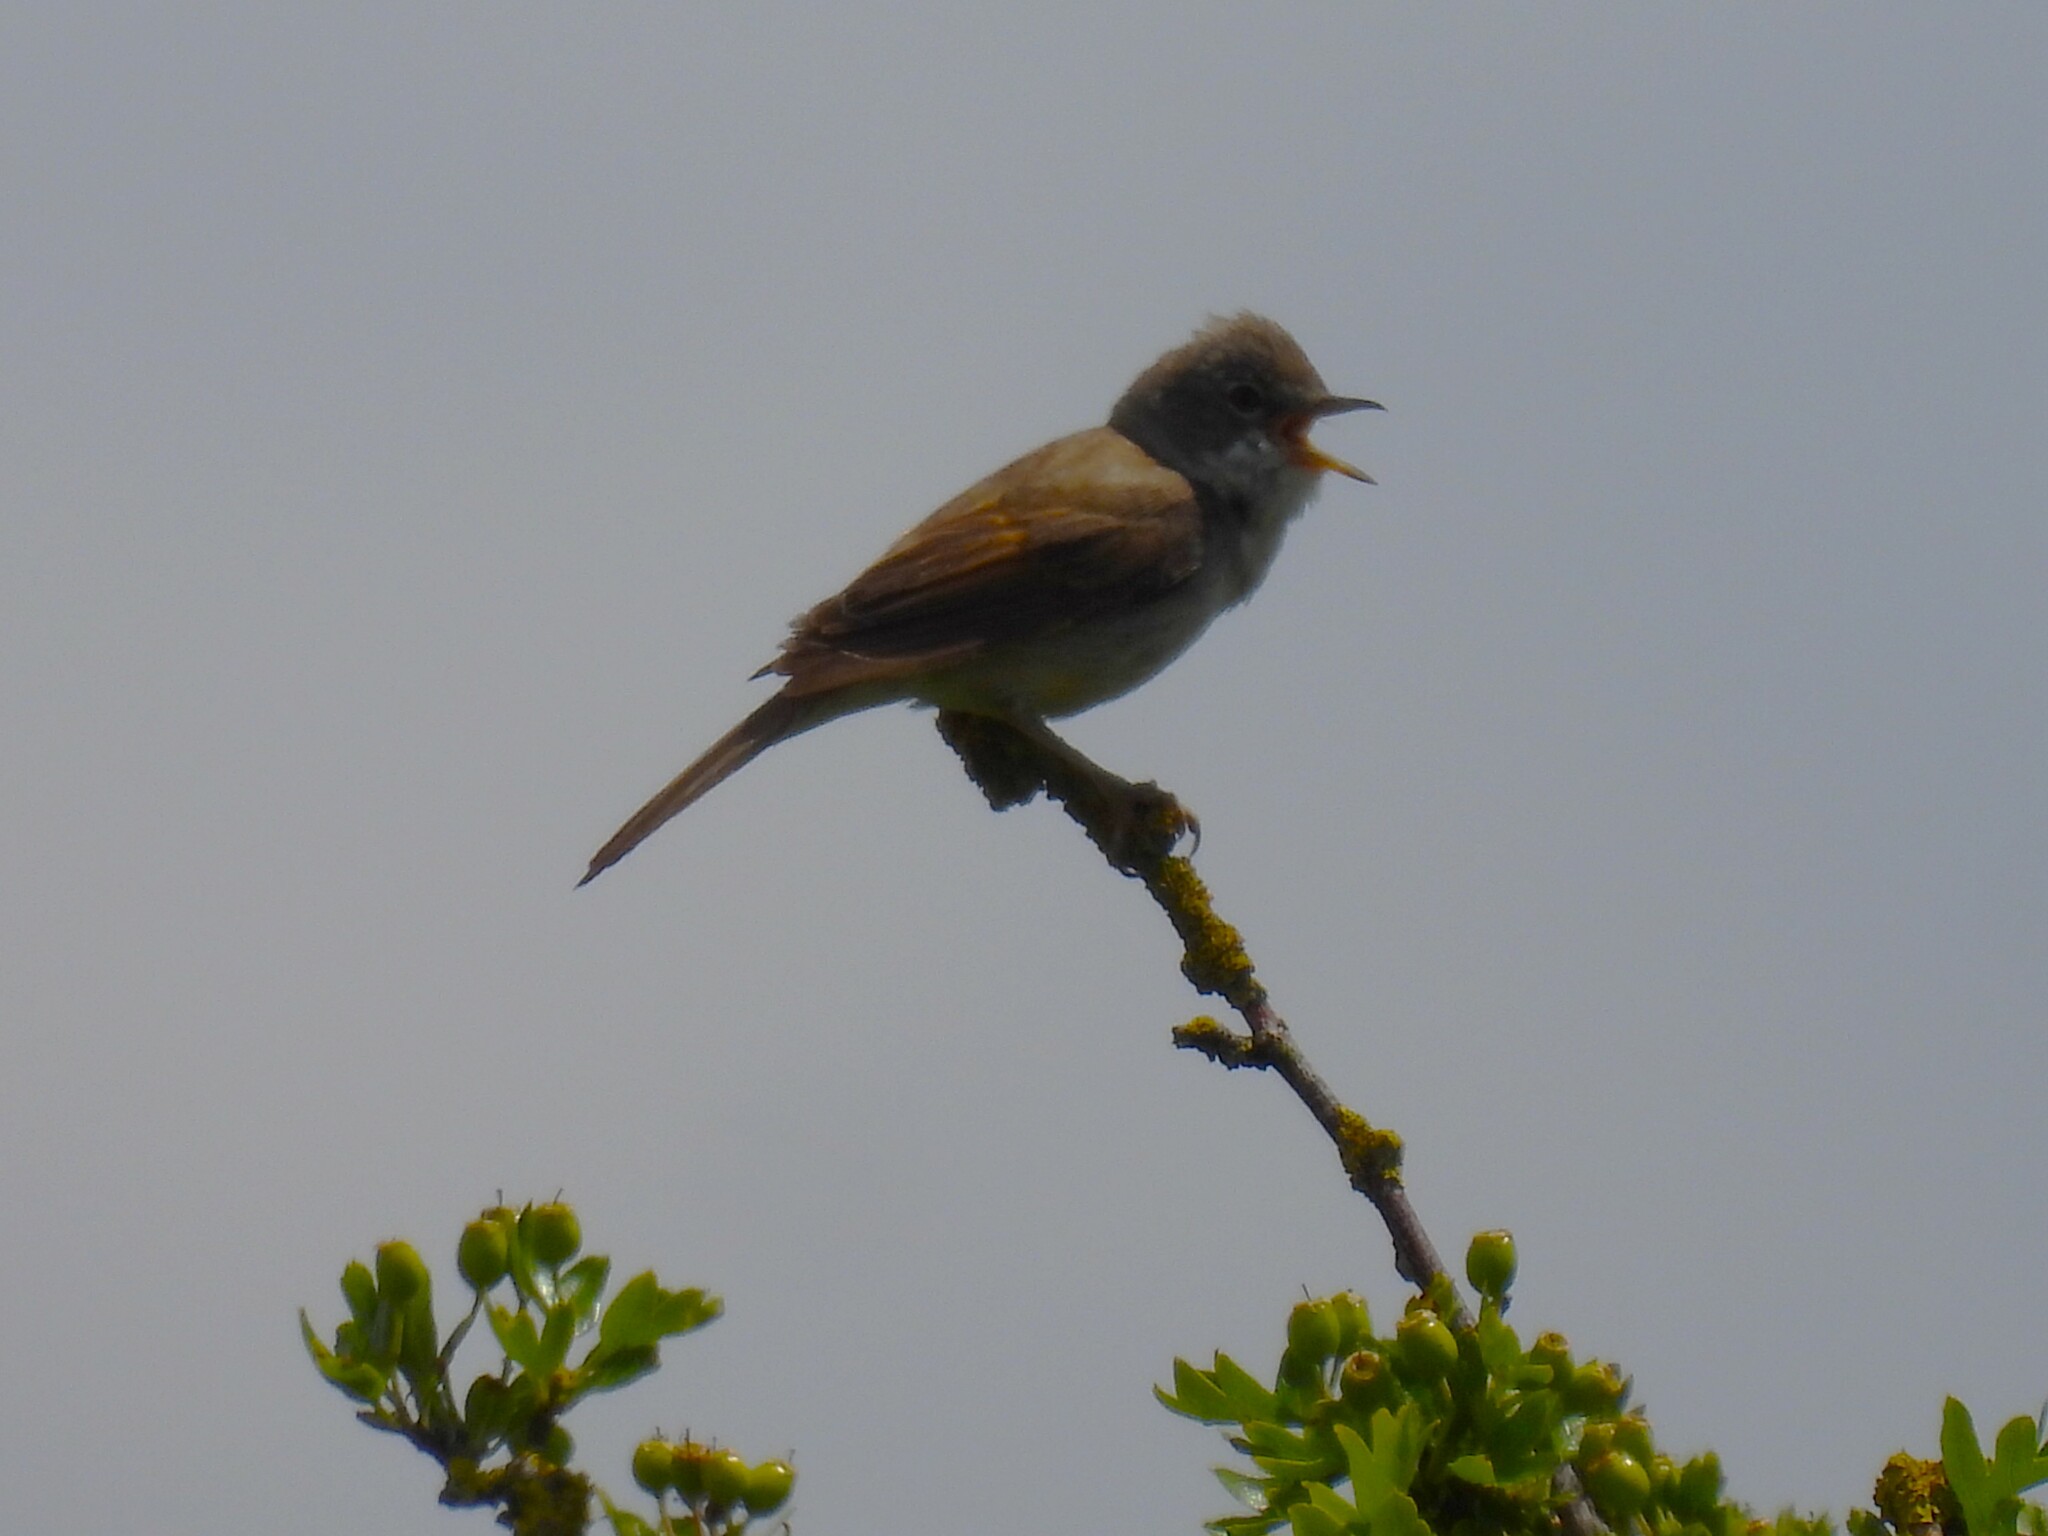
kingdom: Animalia
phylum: Chordata
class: Aves
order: Passeriformes
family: Sylviidae
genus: Sylvia
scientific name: Sylvia communis
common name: Common whitethroat
